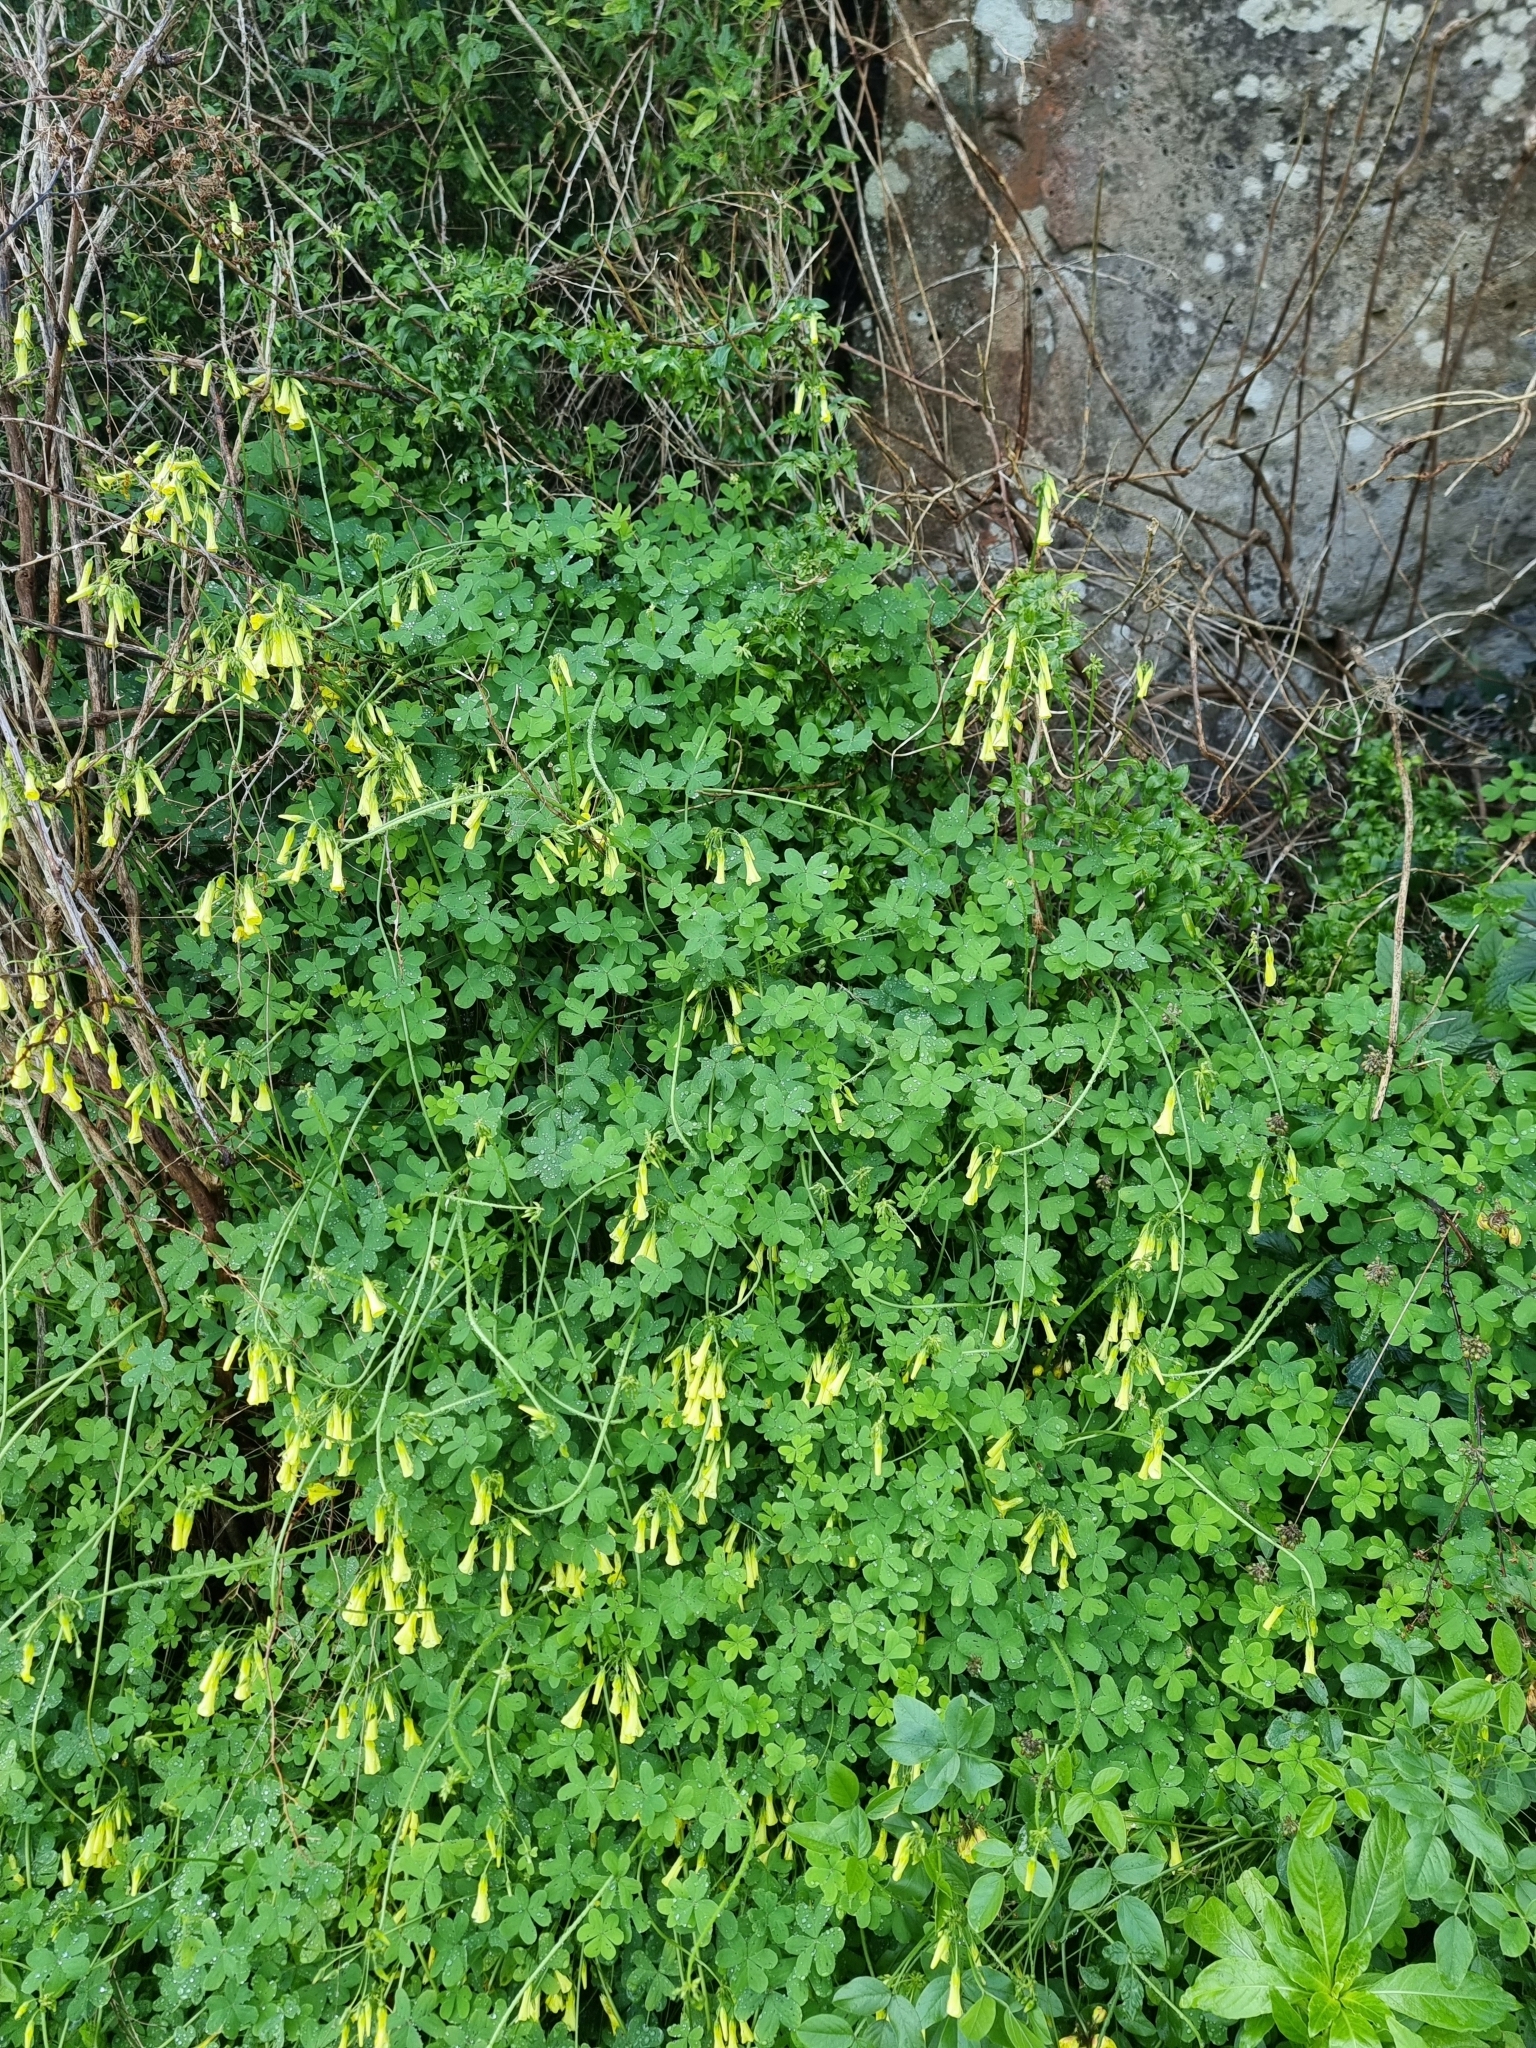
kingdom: Plantae
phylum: Tracheophyta
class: Magnoliopsida
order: Oxalidales
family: Oxalidaceae
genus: Oxalis
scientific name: Oxalis pes-caprae
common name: Bermuda-buttercup
